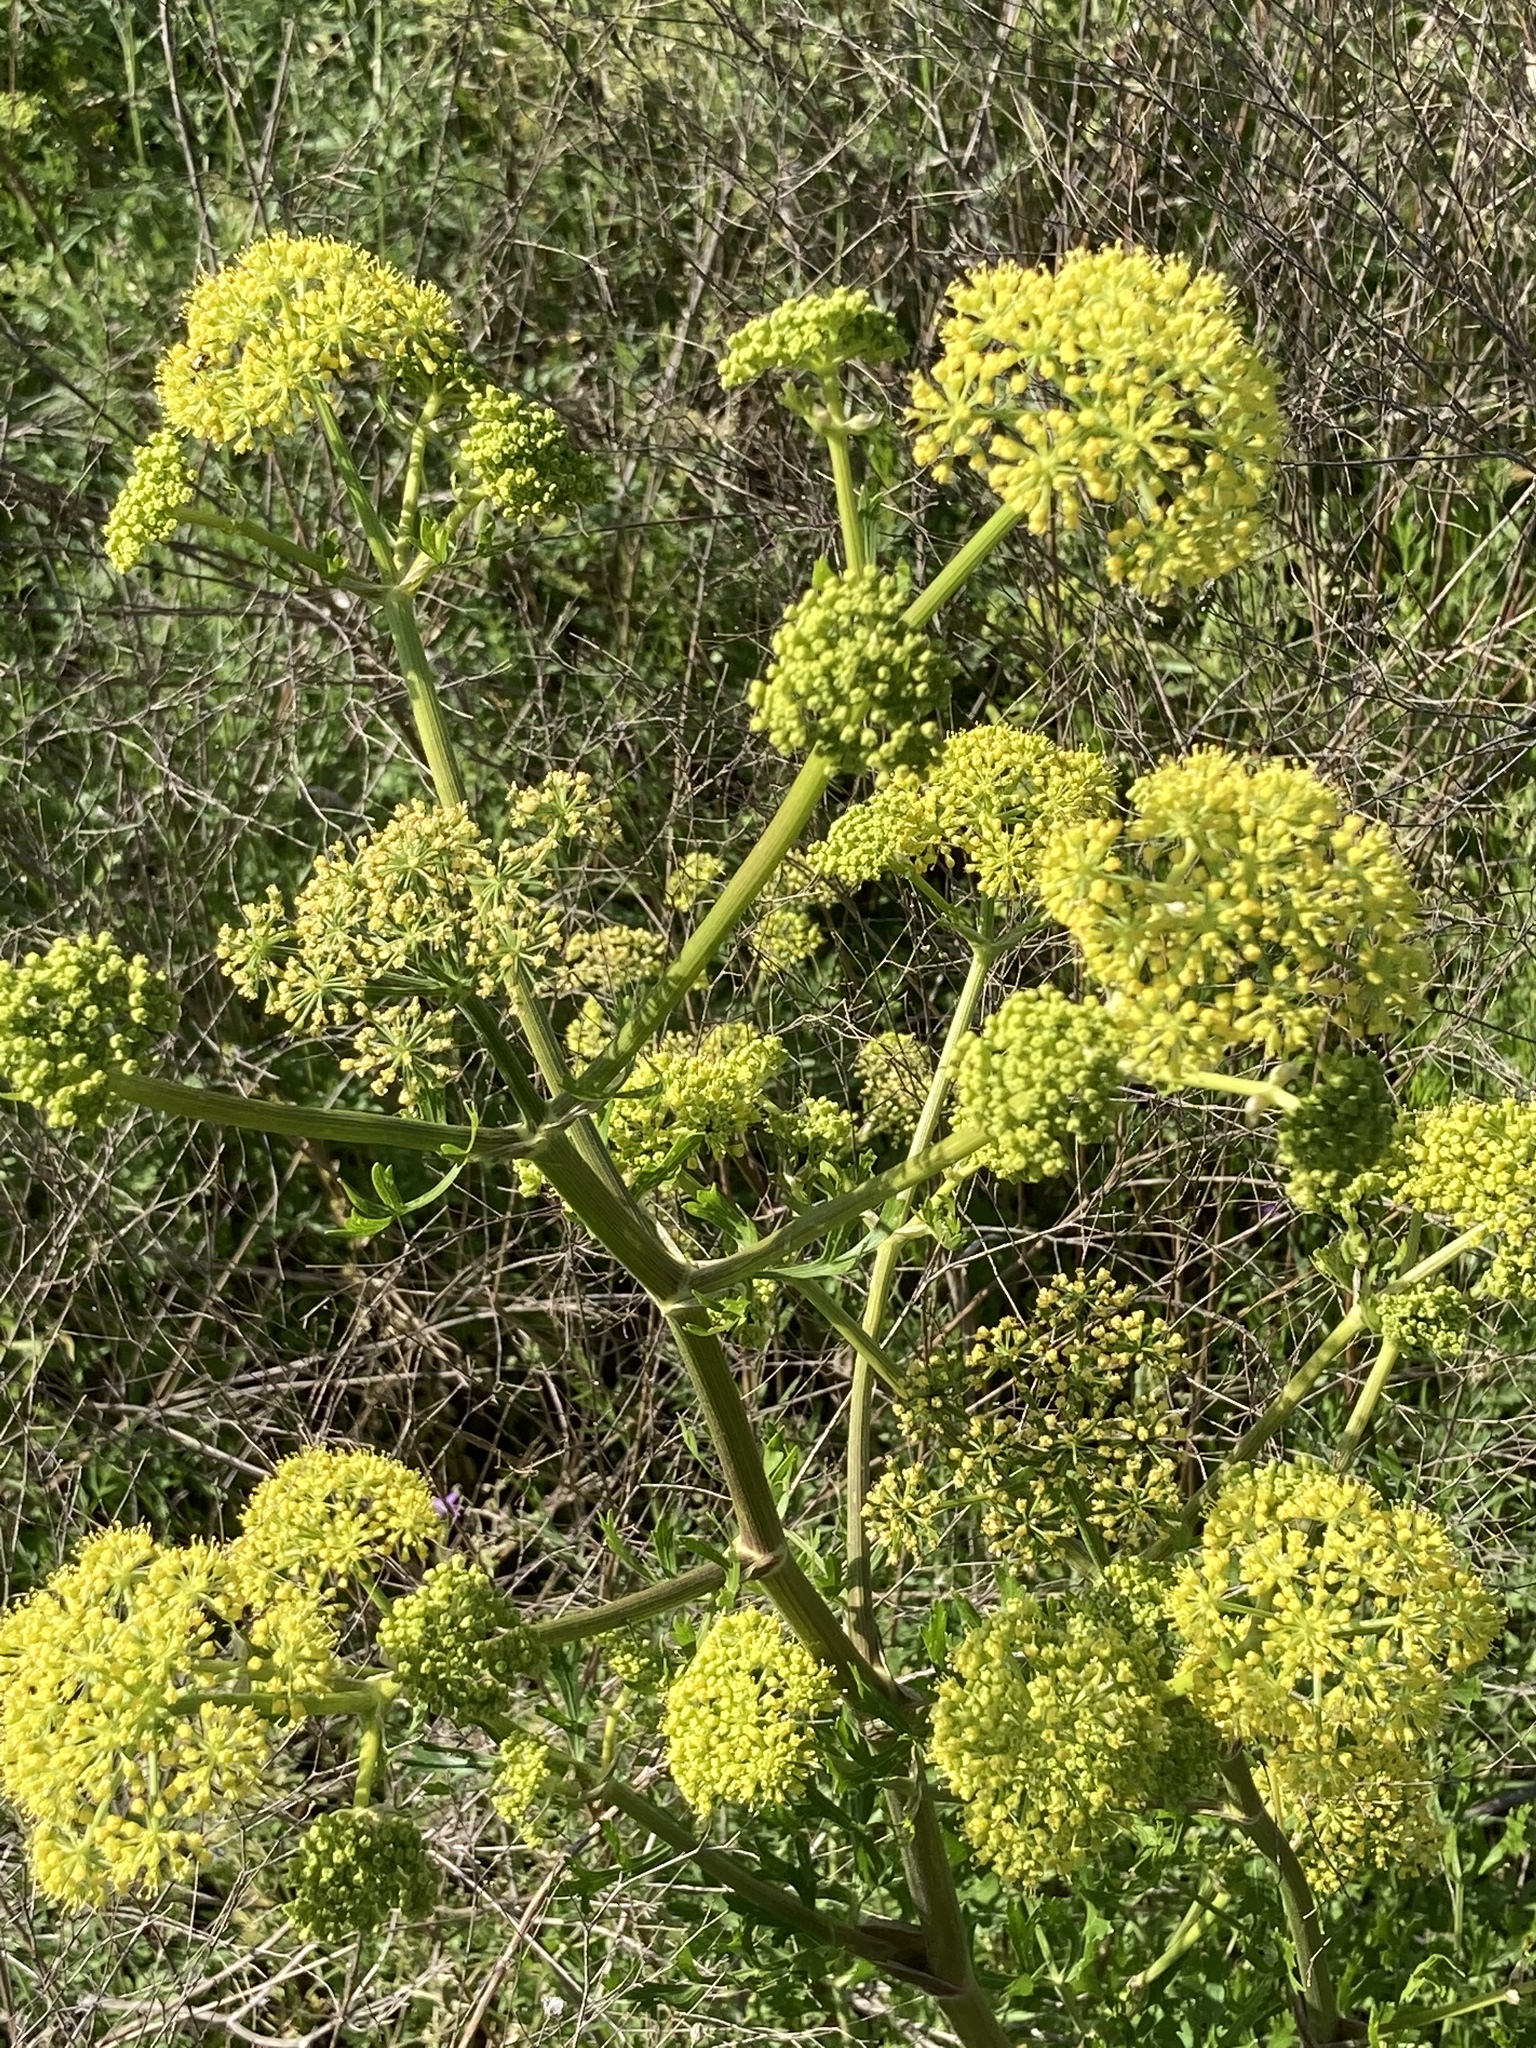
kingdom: Plantae
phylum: Tracheophyta
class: Magnoliopsida
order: Apiales
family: Apiaceae
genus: Polytaenia
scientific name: Polytaenia texana
